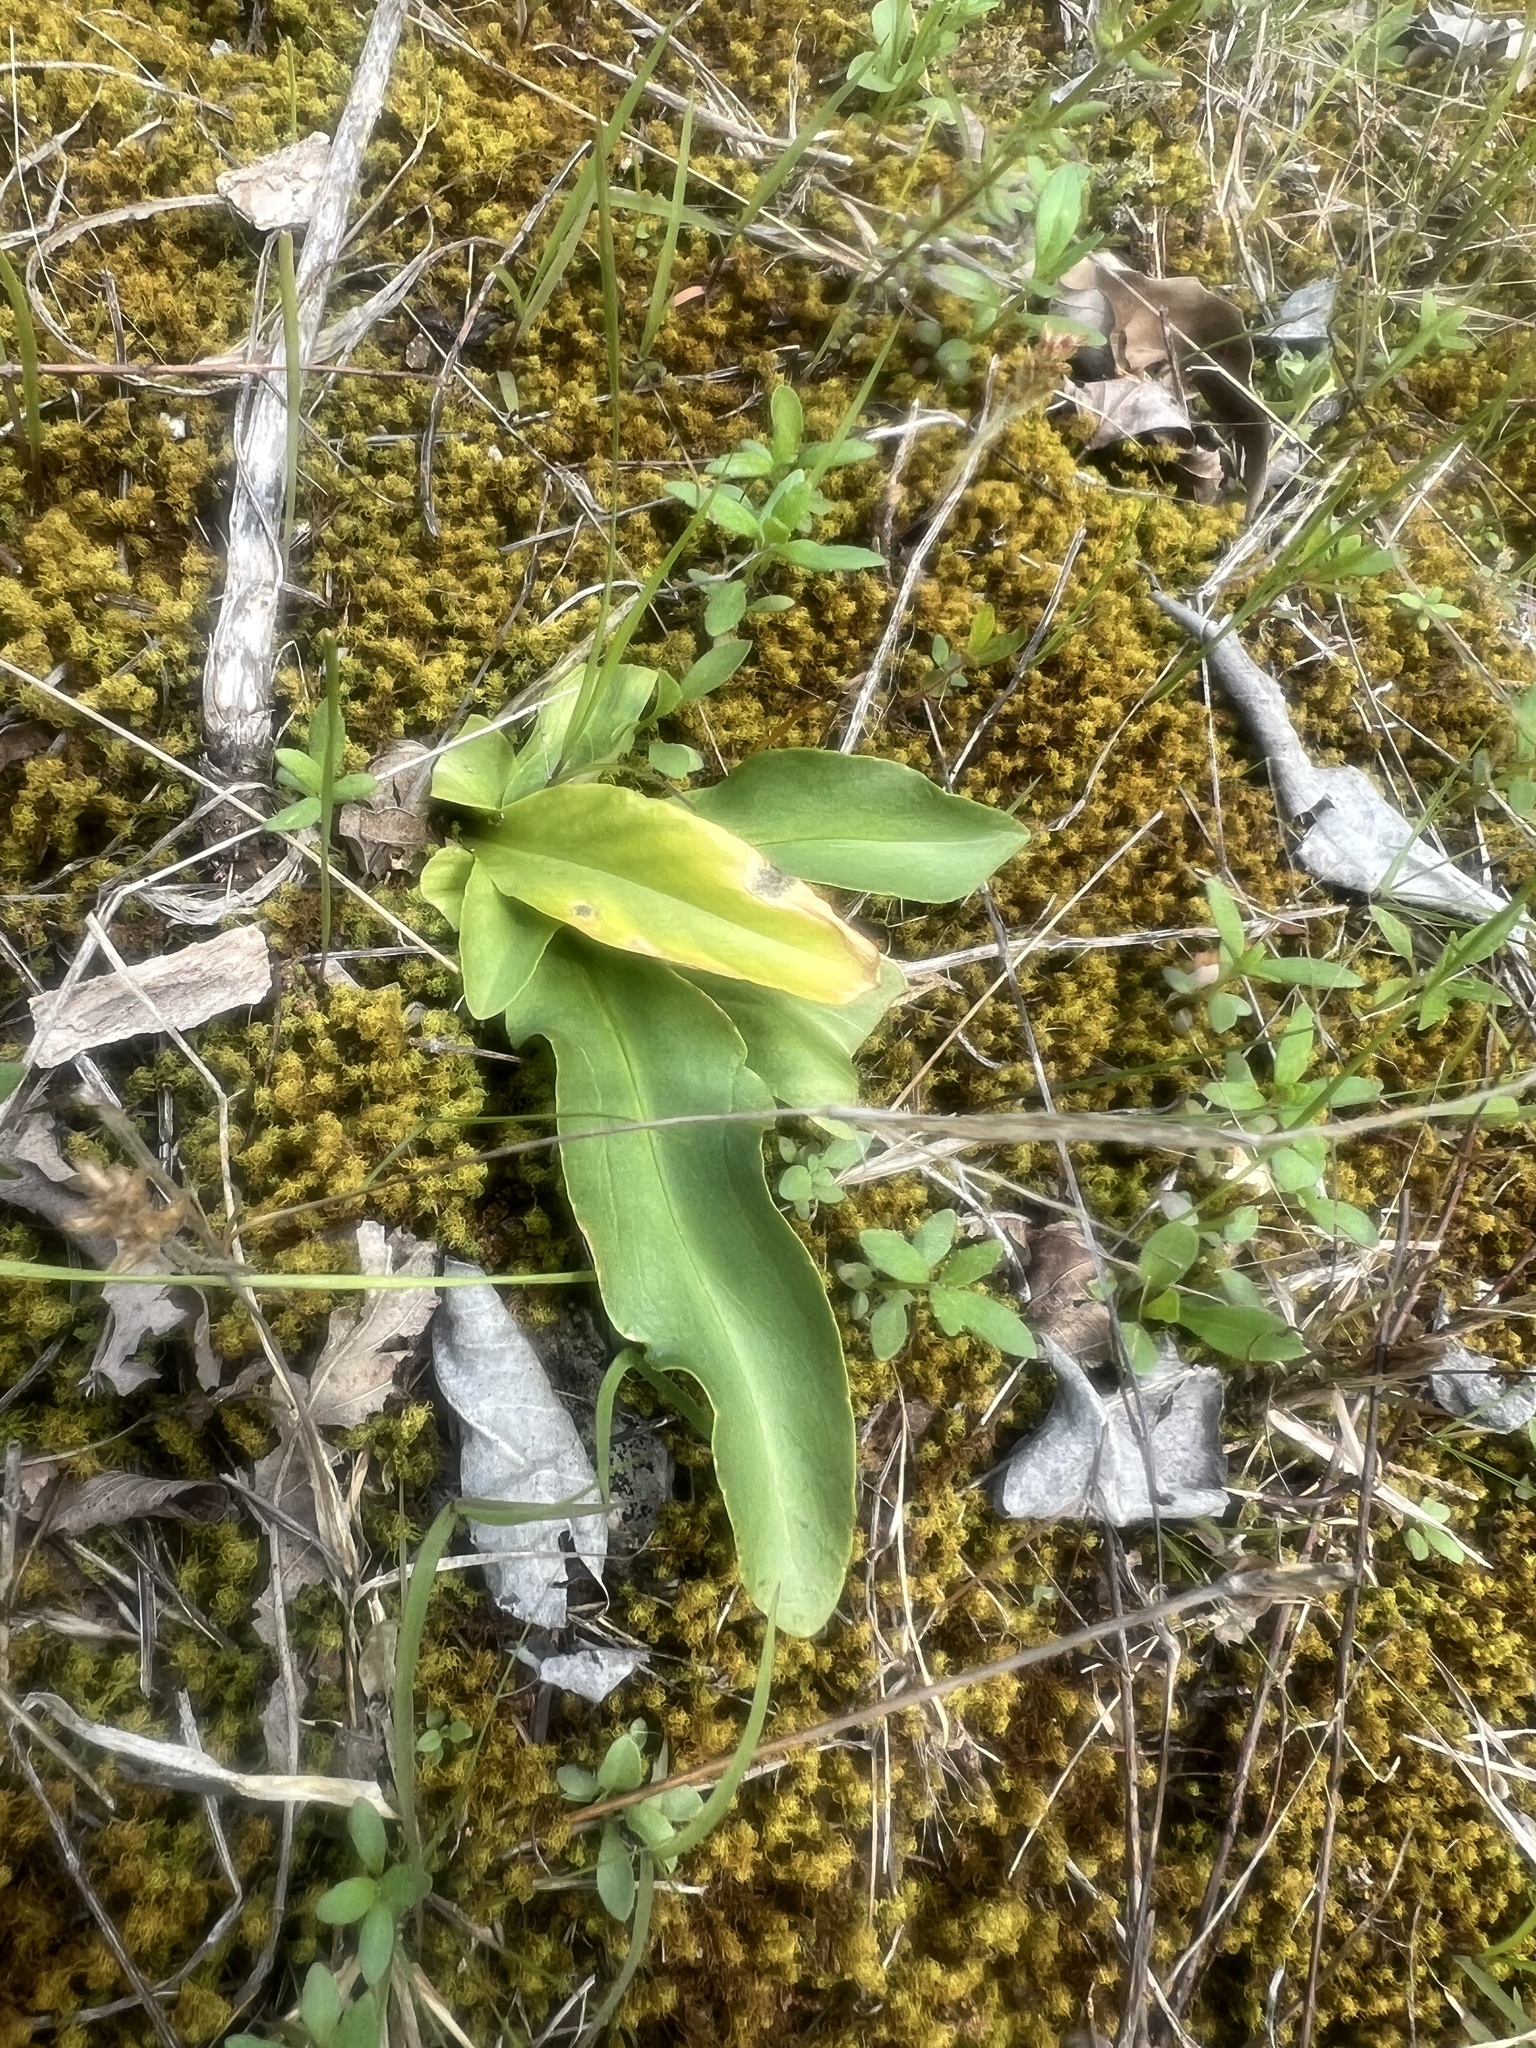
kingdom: Plantae
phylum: Tracheophyta
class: Magnoliopsida
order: Ericales
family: Primulaceae
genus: Dodecatheon
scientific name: Dodecatheon meadia
